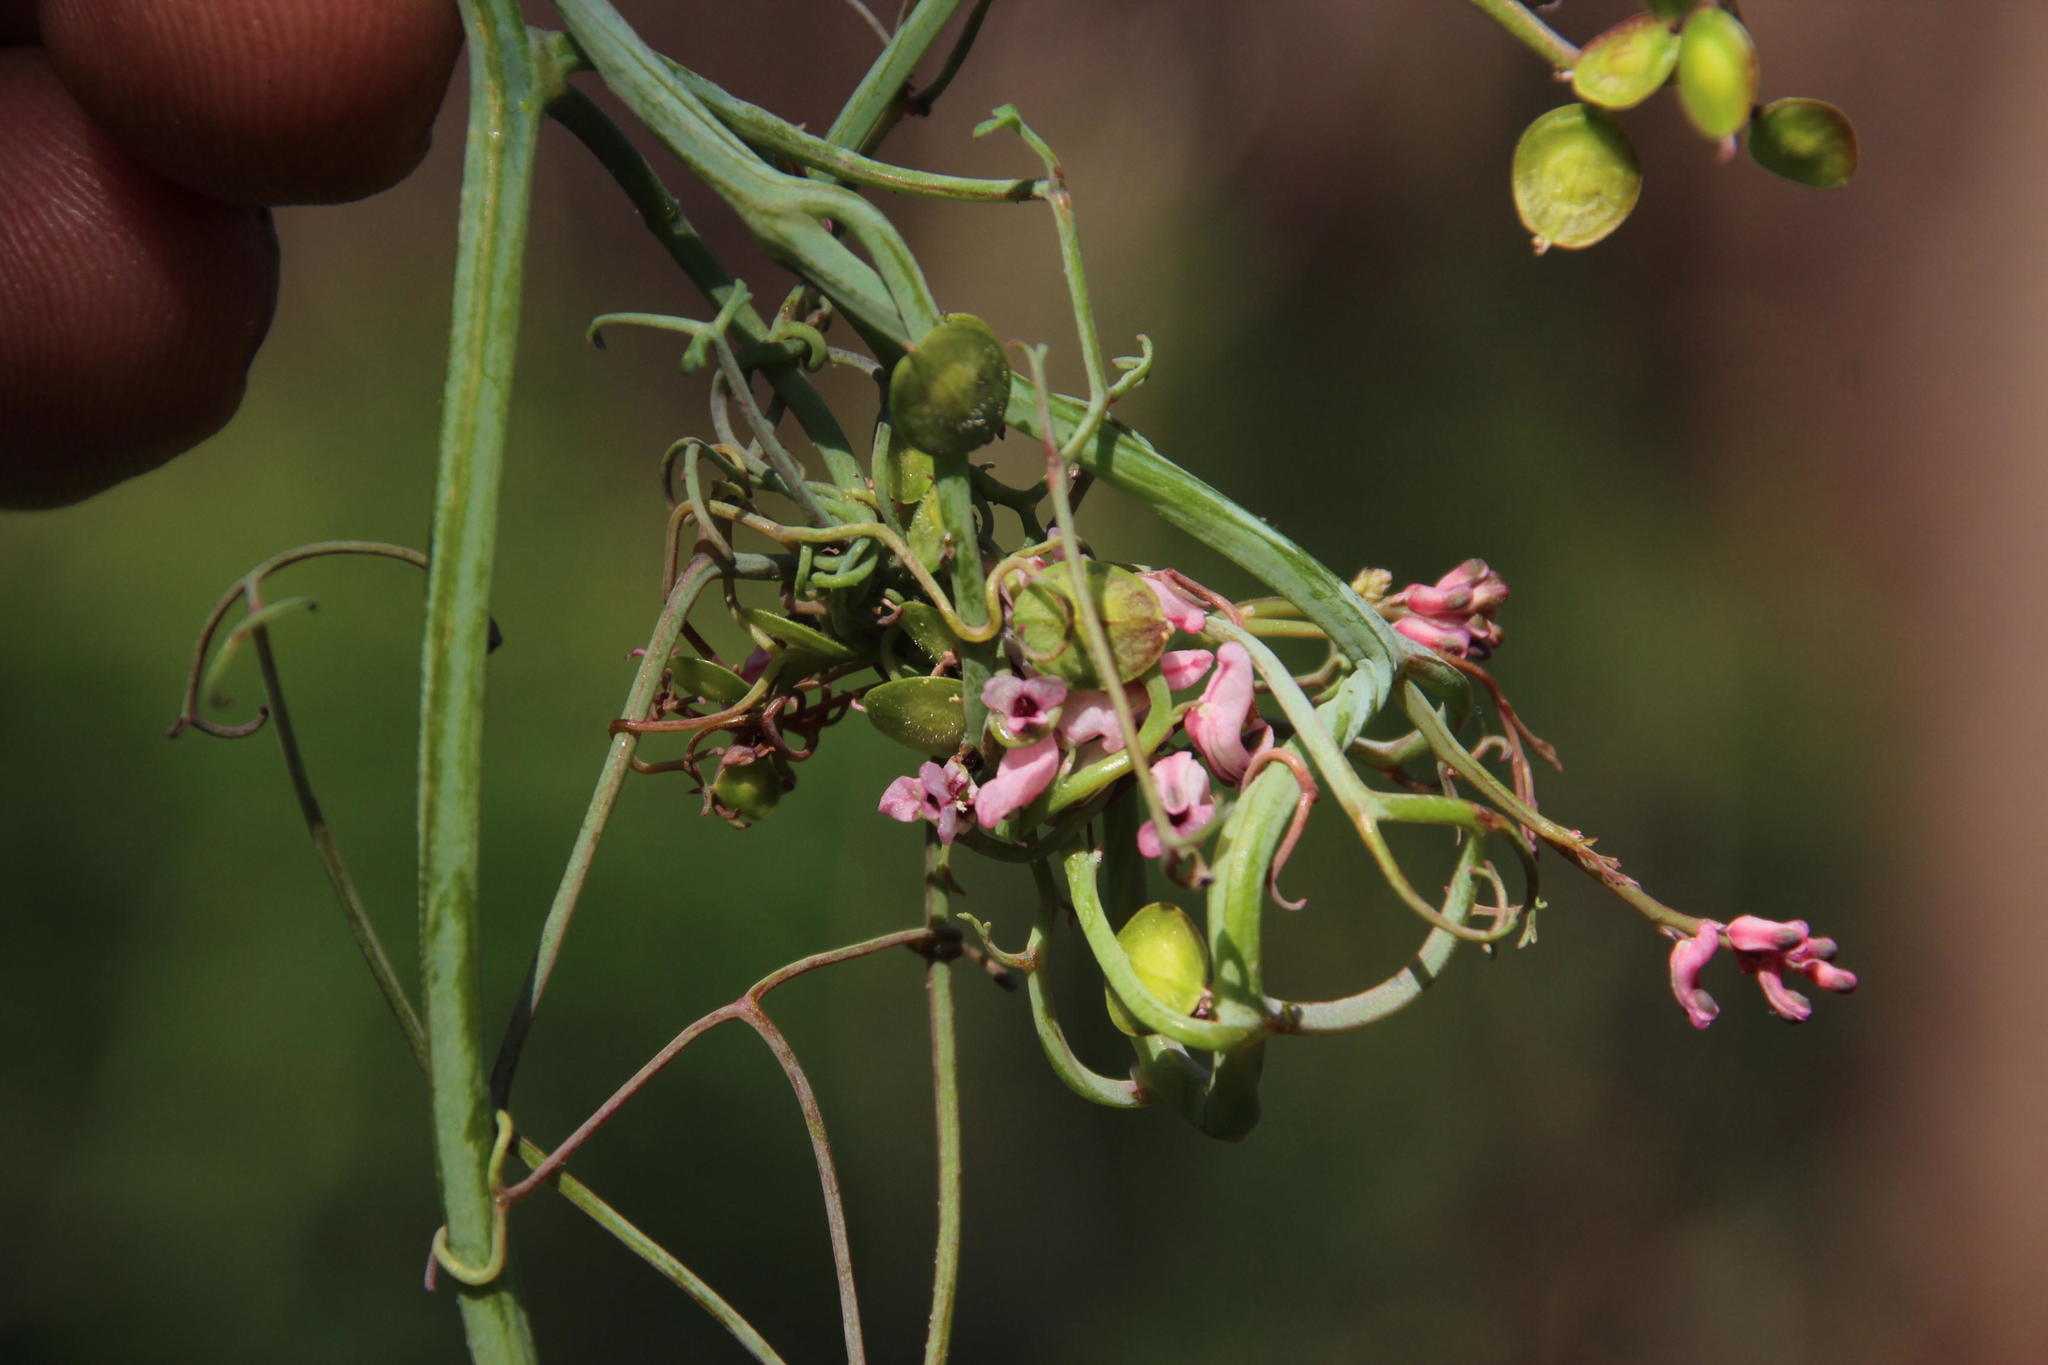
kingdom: Plantae
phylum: Tracheophyta
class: Magnoliopsida
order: Ranunculales
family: Papaveraceae
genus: Discocapnos
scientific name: Discocapnos mundti
